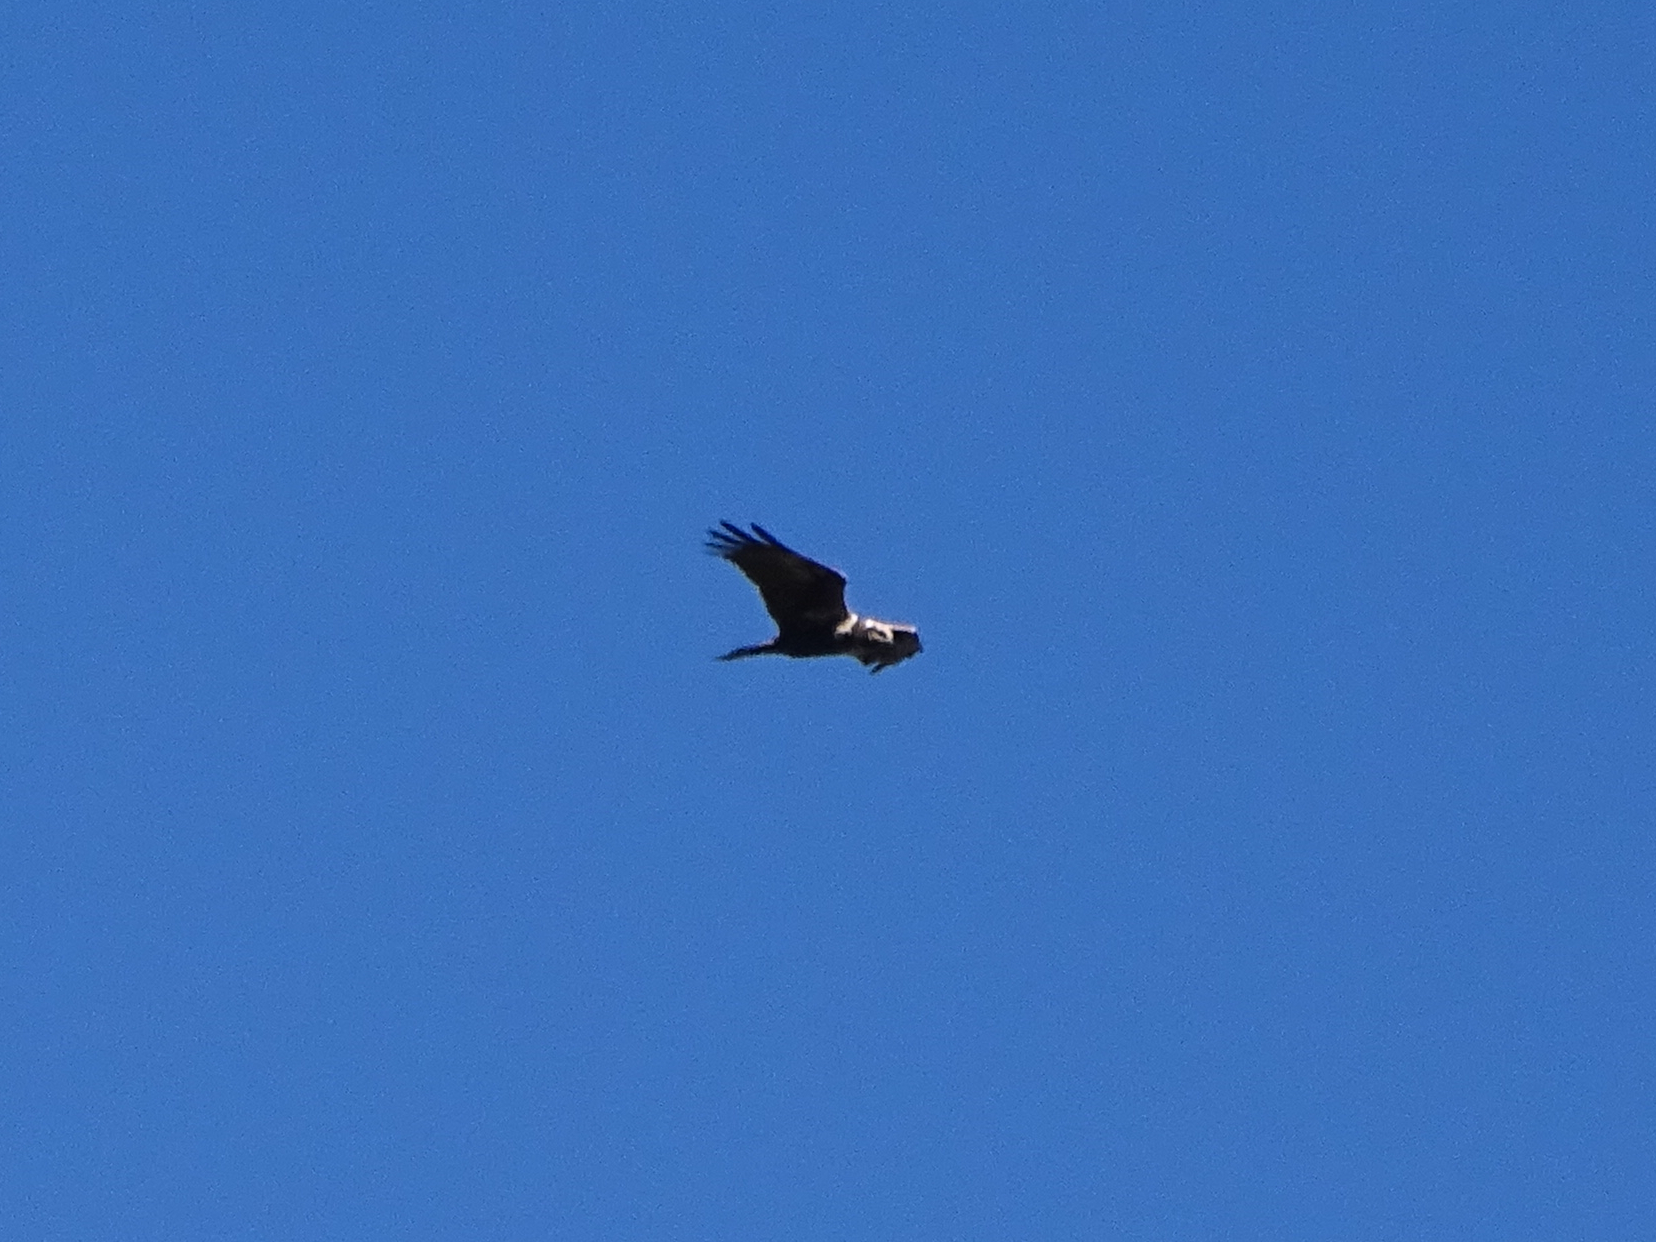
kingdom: Animalia
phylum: Chordata
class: Aves
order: Accipitriformes
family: Accipitridae
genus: Circus
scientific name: Circus aeruginosus
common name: Western marsh harrier
